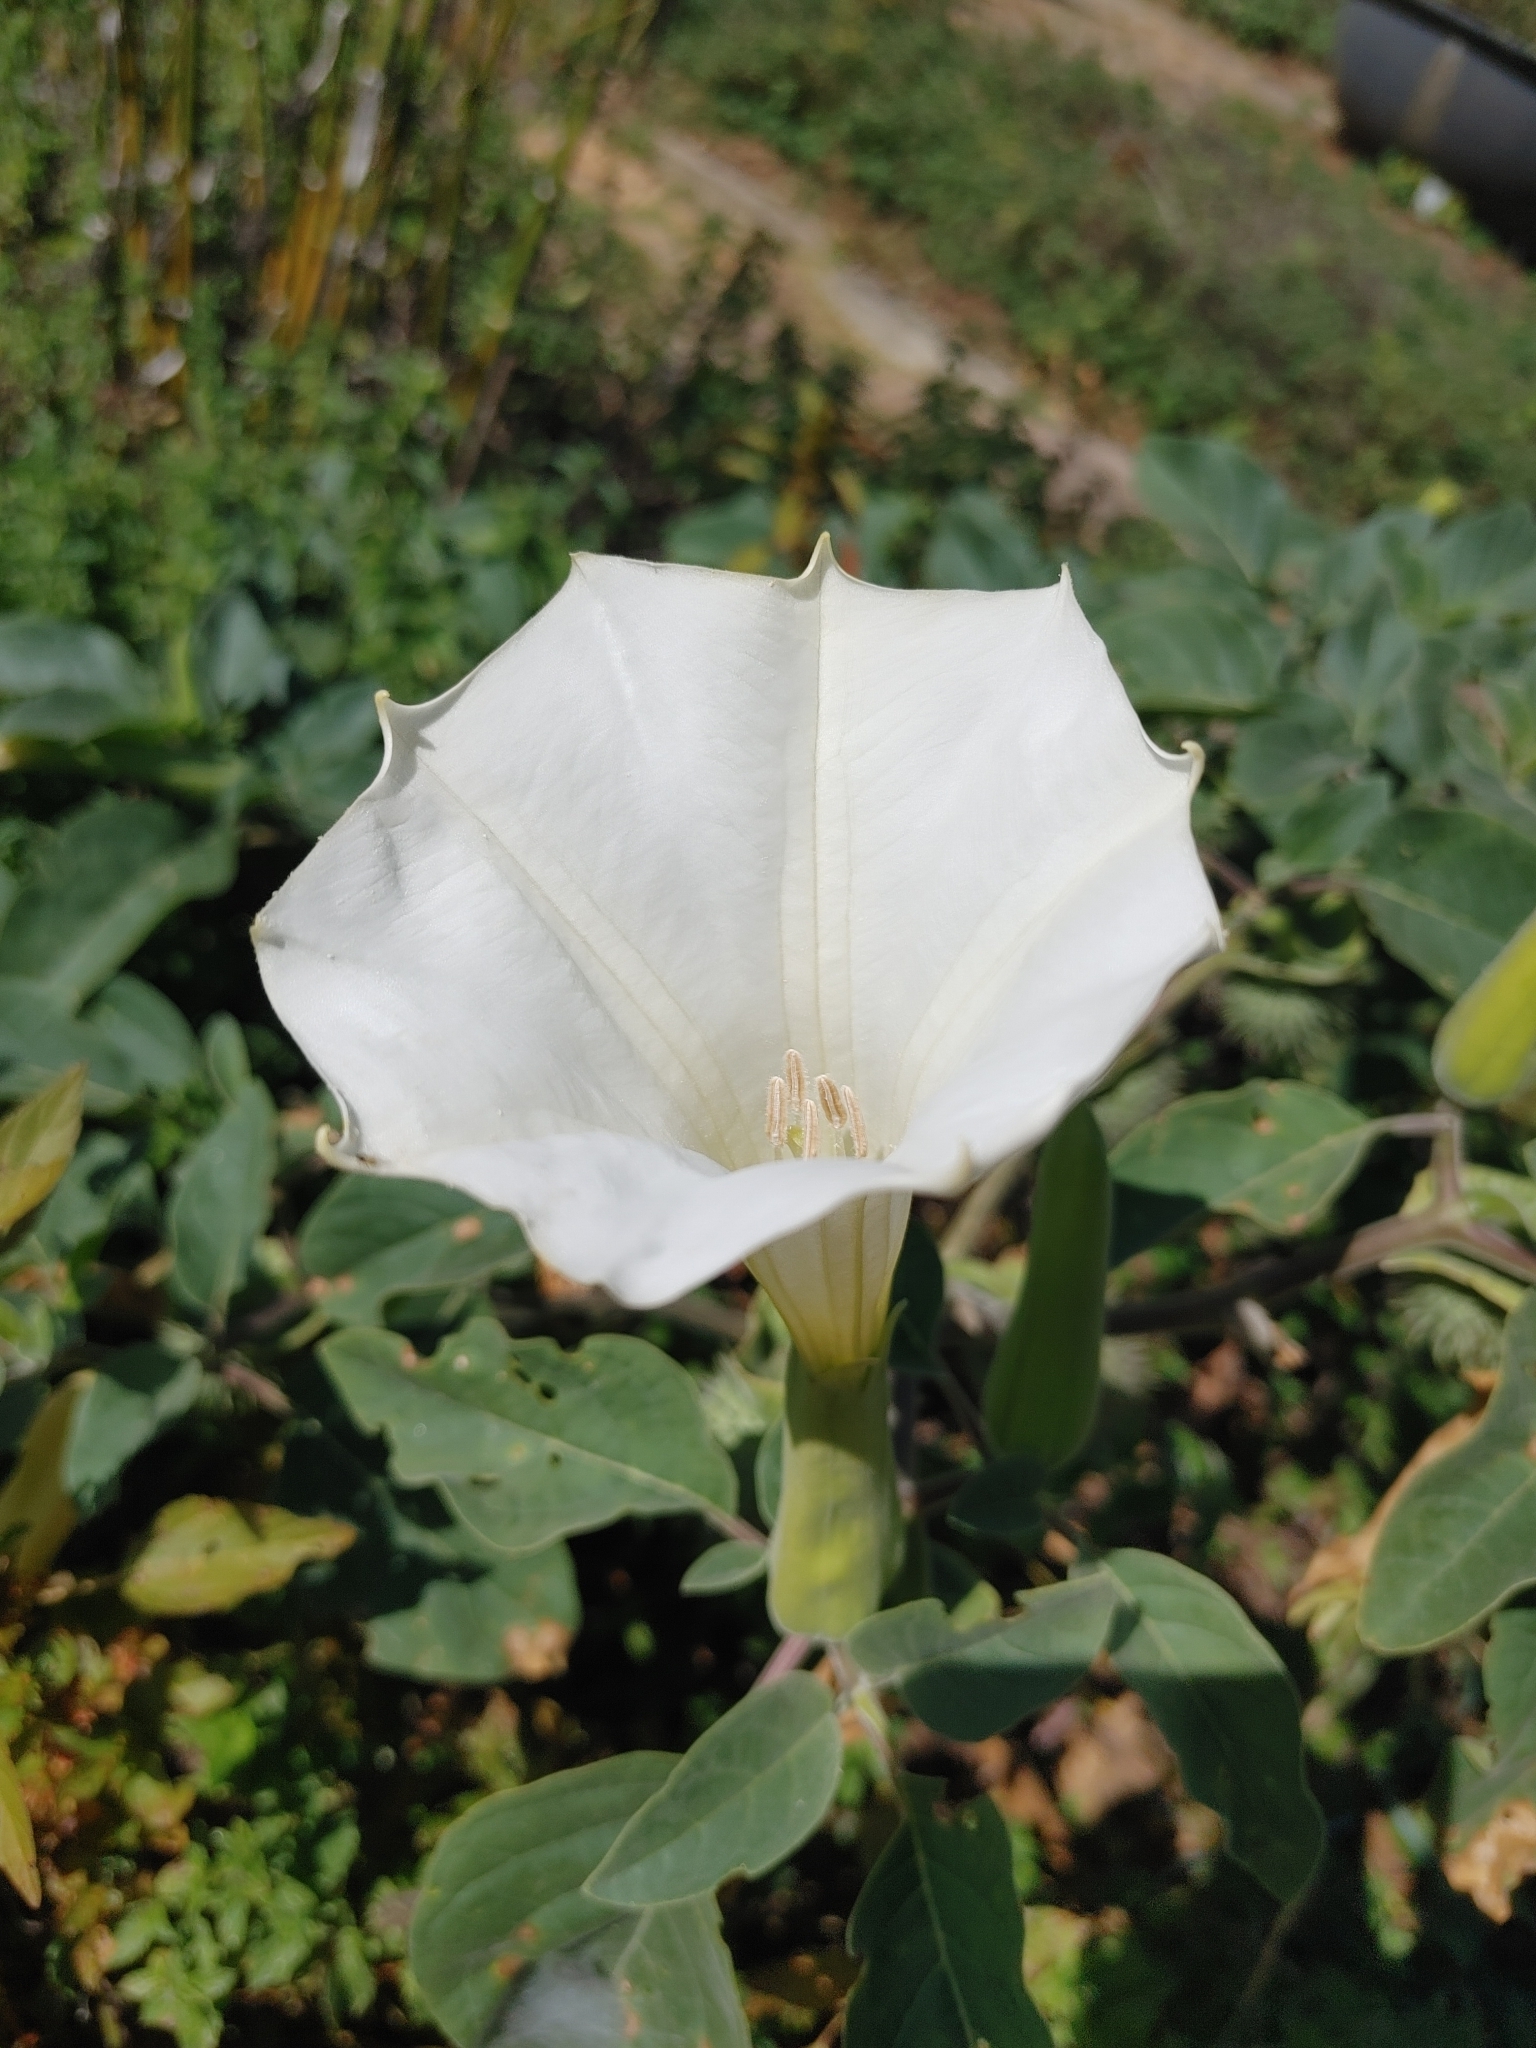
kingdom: Plantae
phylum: Tracheophyta
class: Magnoliopsida
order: Solanales
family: Solanaceae
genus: Datura
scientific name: Datura wrightii
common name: Sacred thorn-apple
